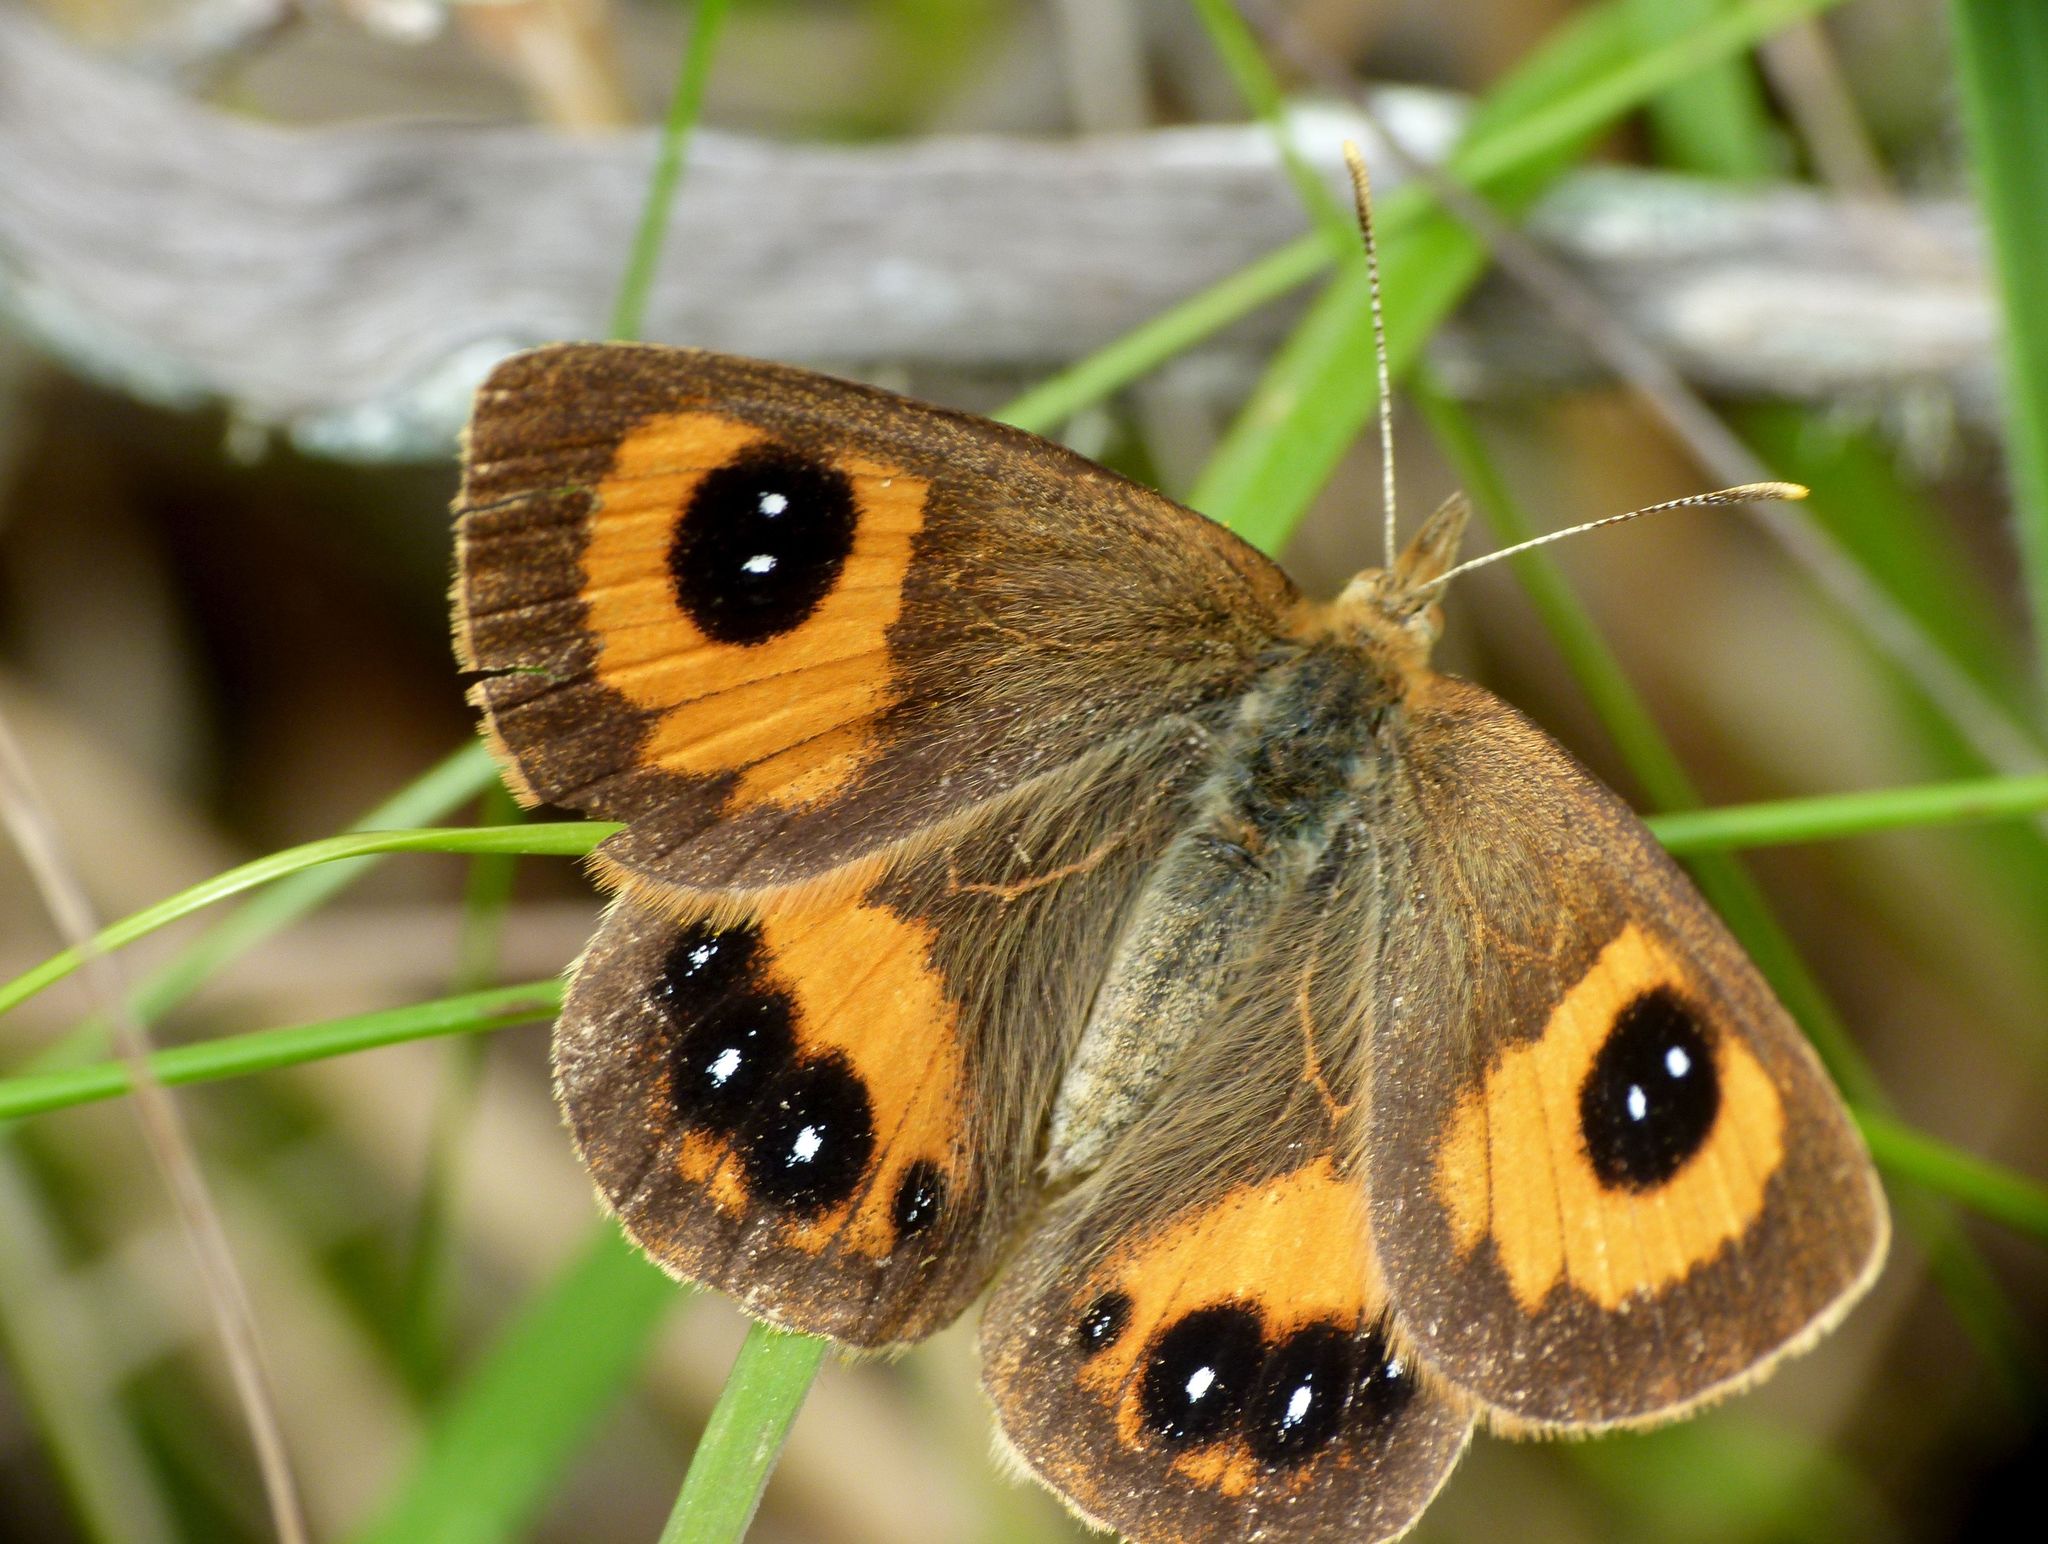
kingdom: Animalia
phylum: Arthropoda
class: Insecta
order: Lepidoptera
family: Nymphalidae
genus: Argyrophenga
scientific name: Argyrophenga antipodum
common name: Common tussock butterfly
